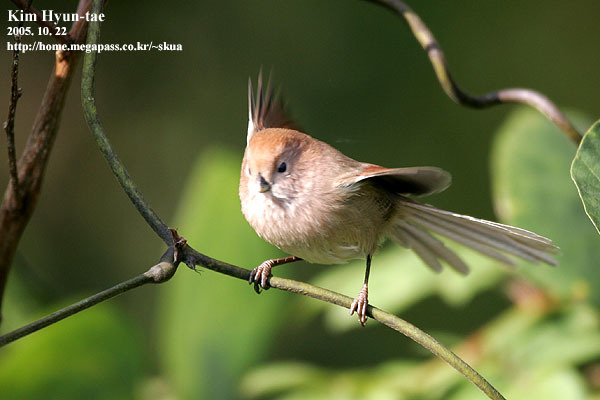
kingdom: Animalia
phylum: Chordata
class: Aves
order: Passeriformes
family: Sylviidae
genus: Sinosuthora
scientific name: Sinosuthora webbiana
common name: Vinous-throated parrotbill
